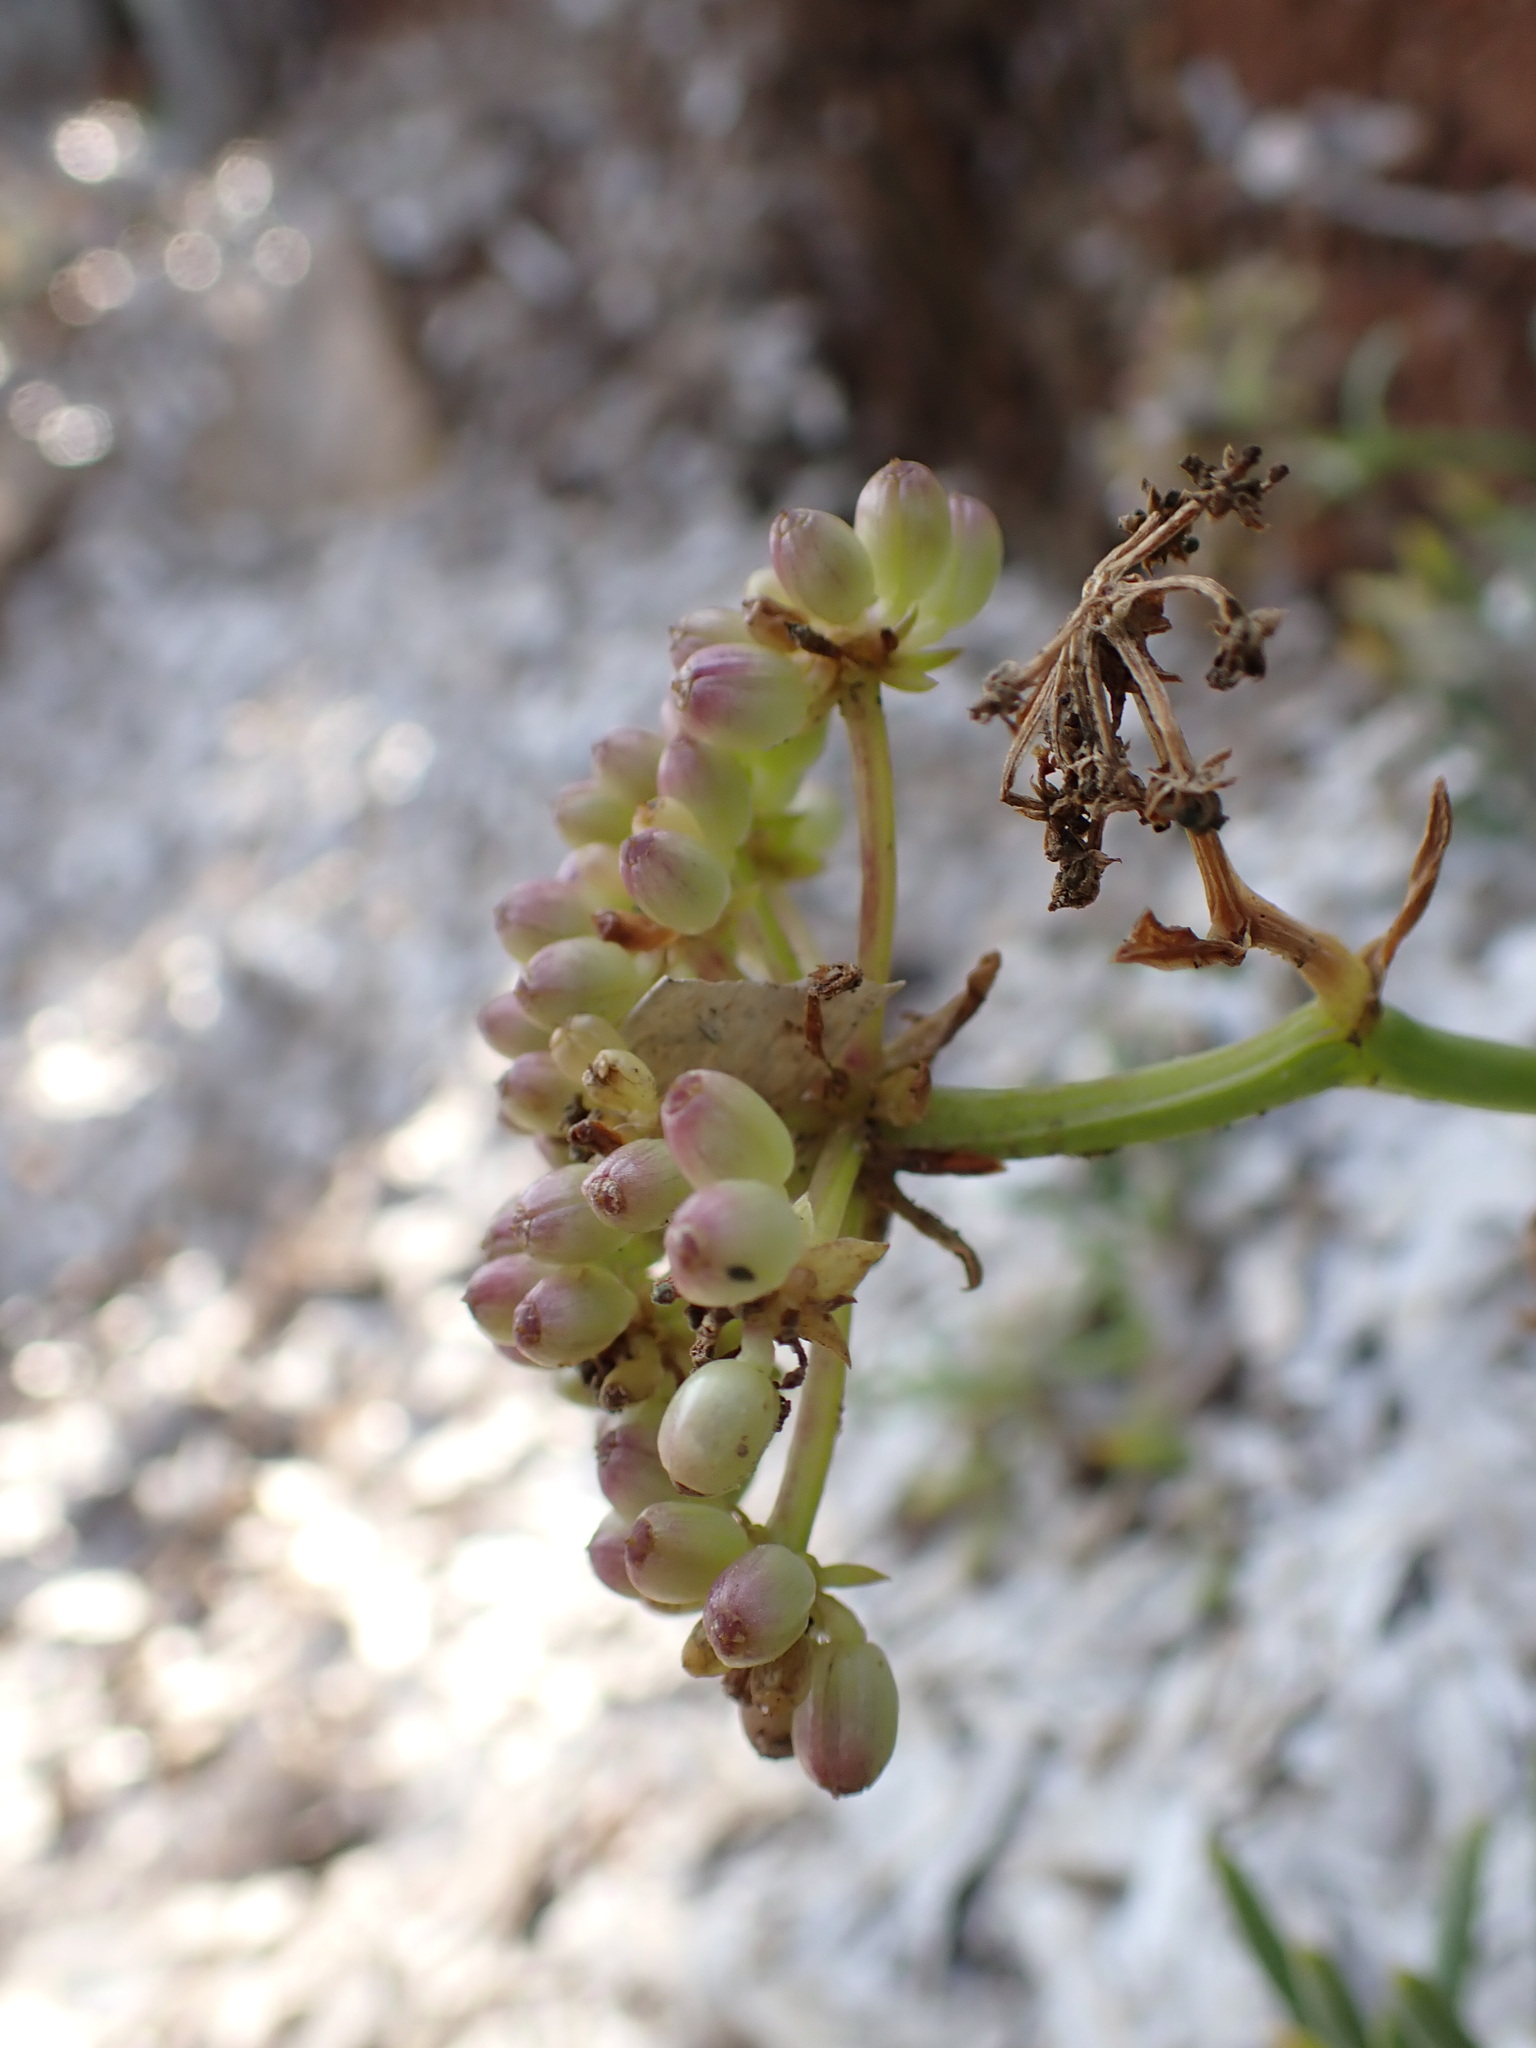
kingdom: Plantae
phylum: Tracheophyta
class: Magnoliopsida
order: Apiales
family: Apiaceae
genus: Crithmum
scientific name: Crithmum maritimum
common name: Rock samphire
